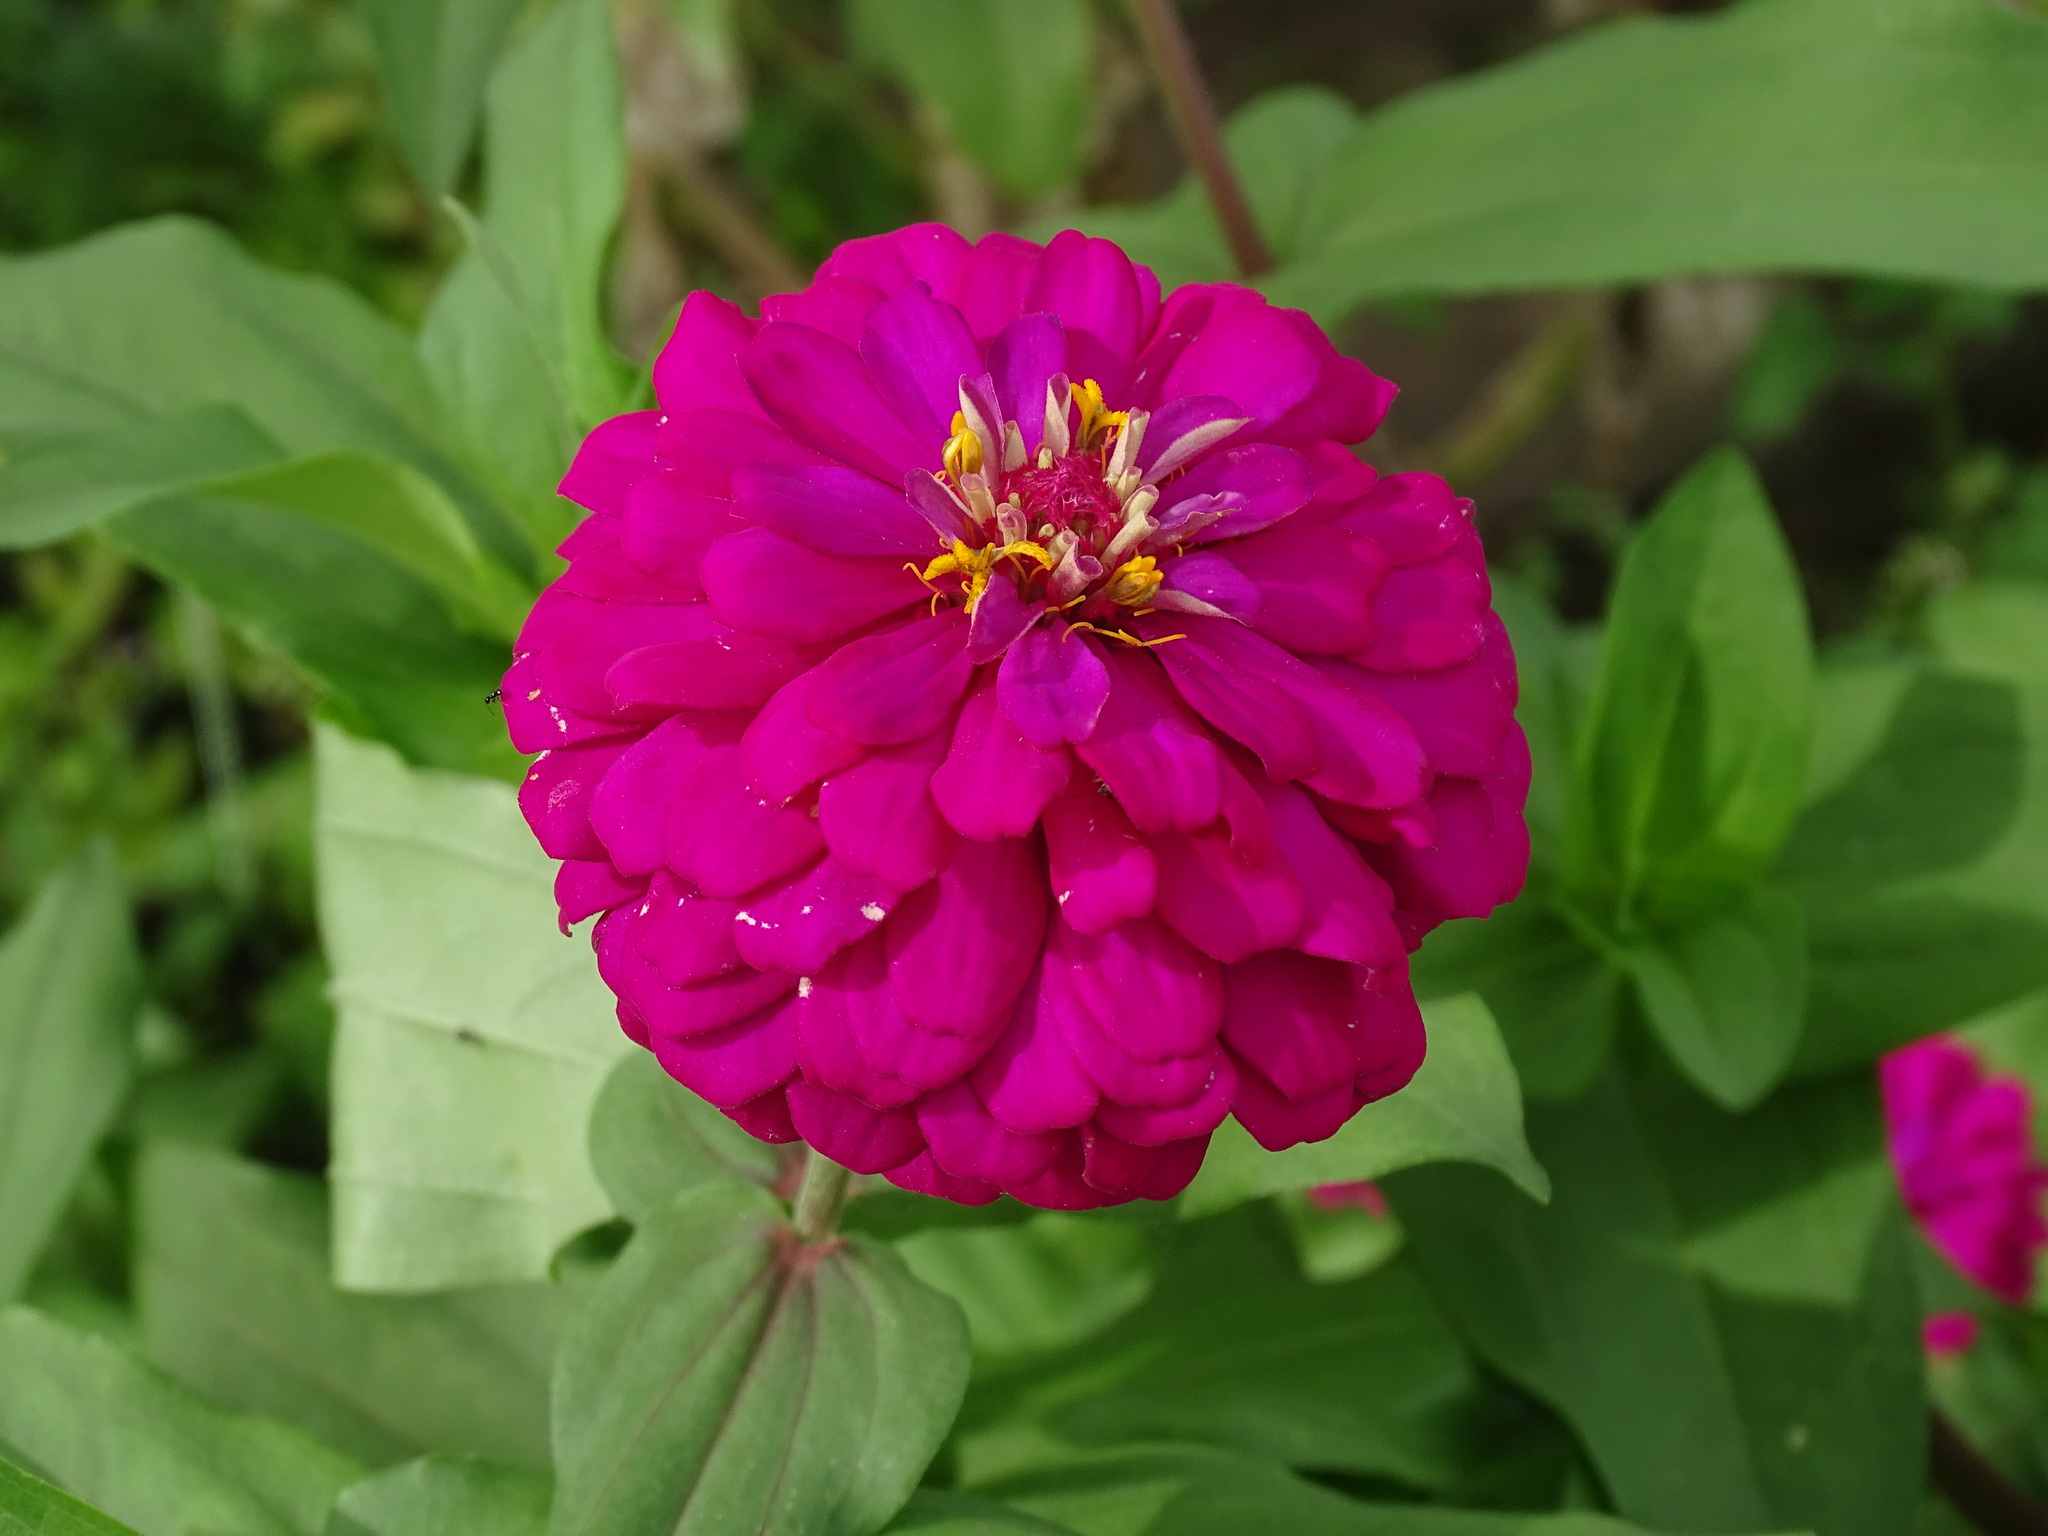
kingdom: Plantae
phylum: Tracheophyta
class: Magnoliopsida
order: Asterales
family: Asteraceae
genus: Zinnia
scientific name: Zinnia elegans
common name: Youth-and-age
